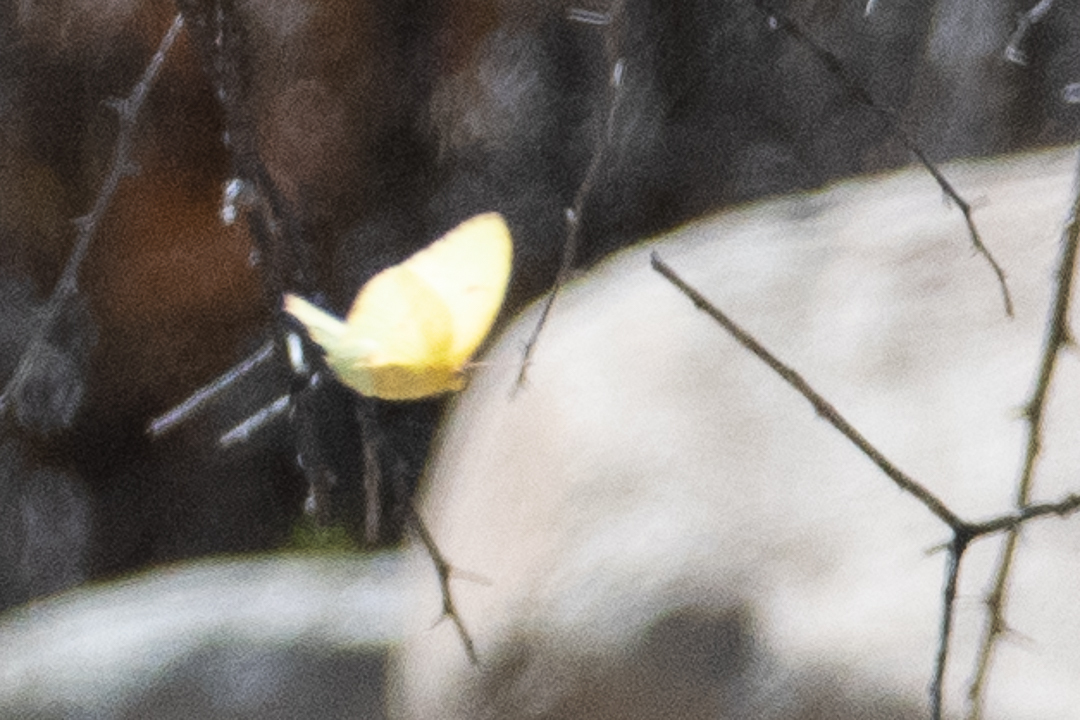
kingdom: Animalia
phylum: Arthropoda
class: Insecta
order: Lepidoptera
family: Pieridae
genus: Phoebis
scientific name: Phoebis sennae
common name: Cloudless sulphur
